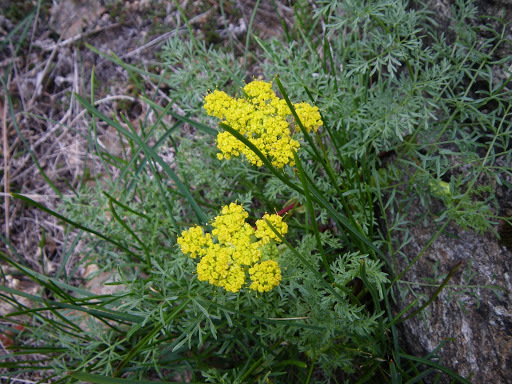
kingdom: Plantae
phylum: Tracheophyta
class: Magnoliopsida
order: Apiales
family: Apiaceae
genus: Lomatium
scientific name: Lomatium utriculatum
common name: Fine-leaf desert-parsley
